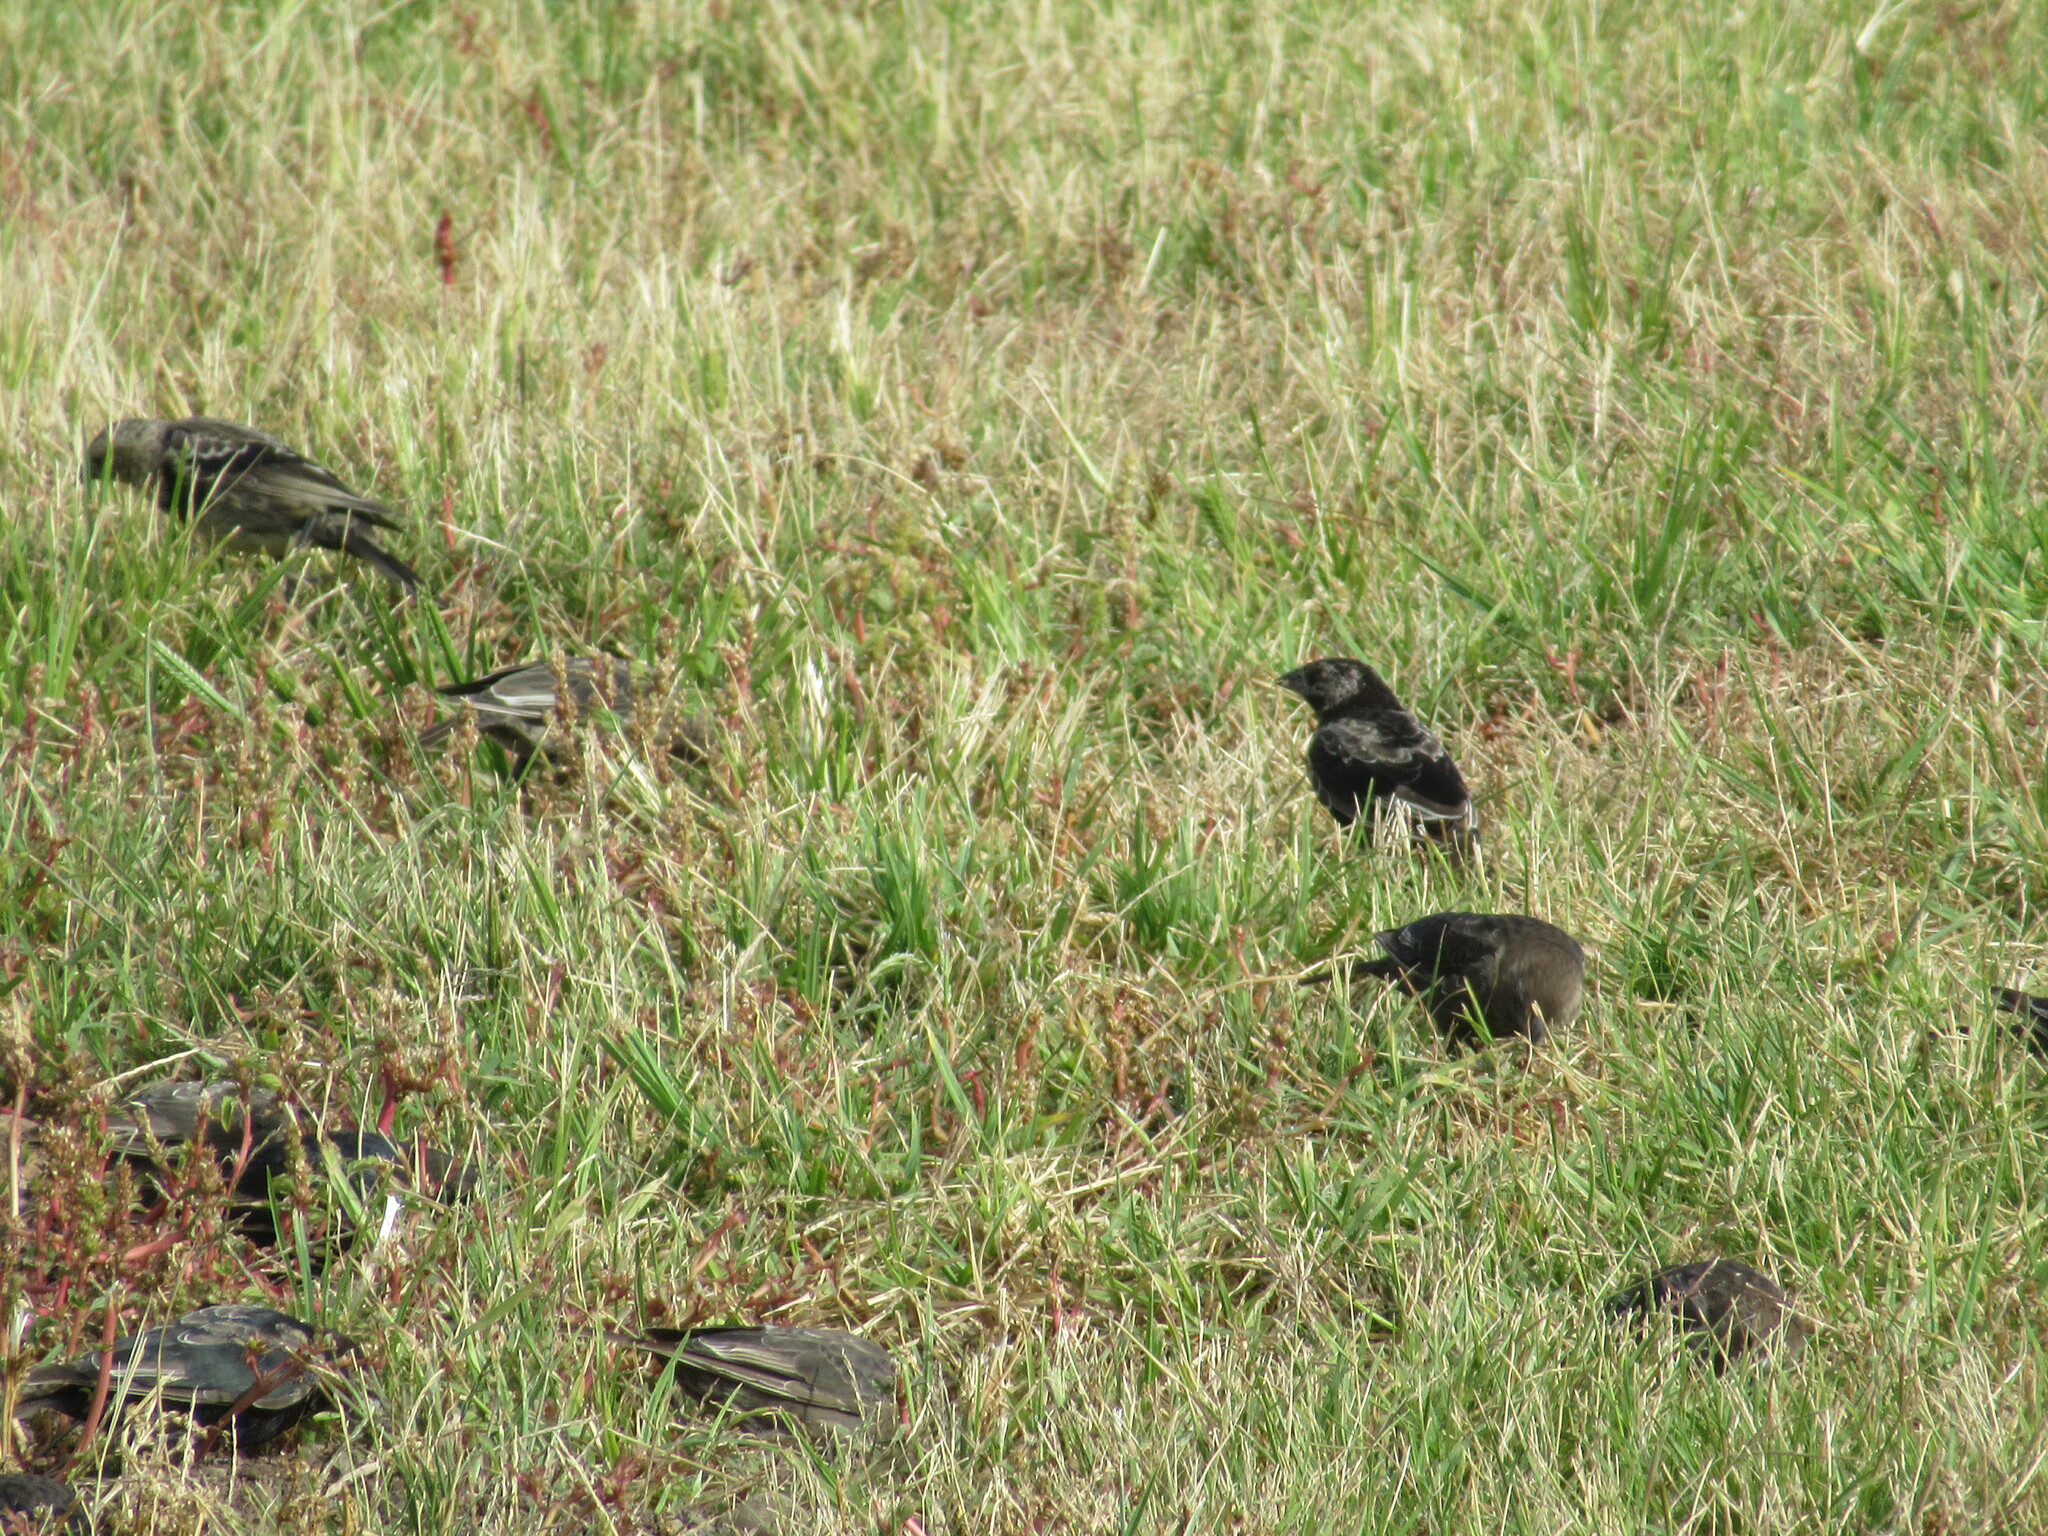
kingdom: Animalia
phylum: Chordata
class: Aves
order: Passeriformes
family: Icteridae
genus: Molothrus
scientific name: Molothrus ater
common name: Brown-headed cowbird
